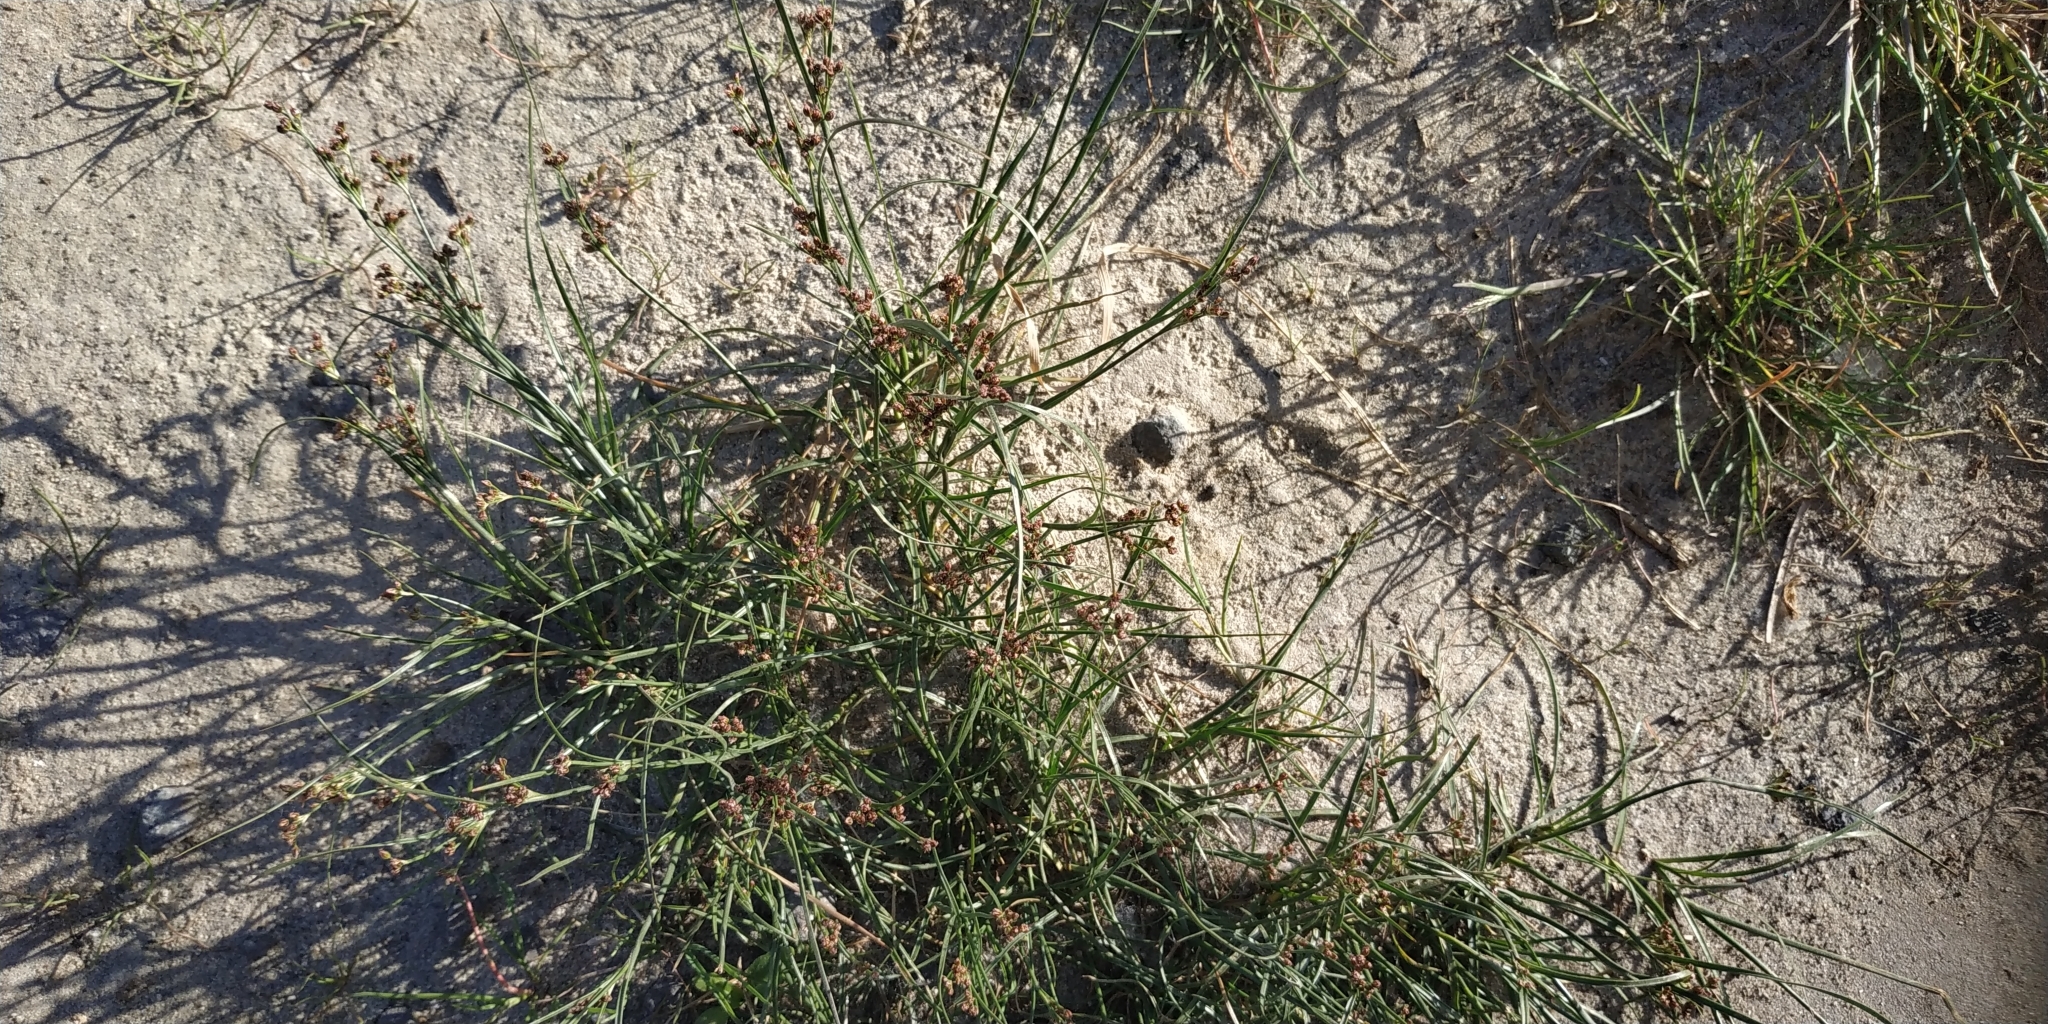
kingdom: Plantae
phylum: Tracheophyta
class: Liliopsida
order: Poales
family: Juncaceae
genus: Juncus
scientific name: Juncus compressus
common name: Round-fruited rush
